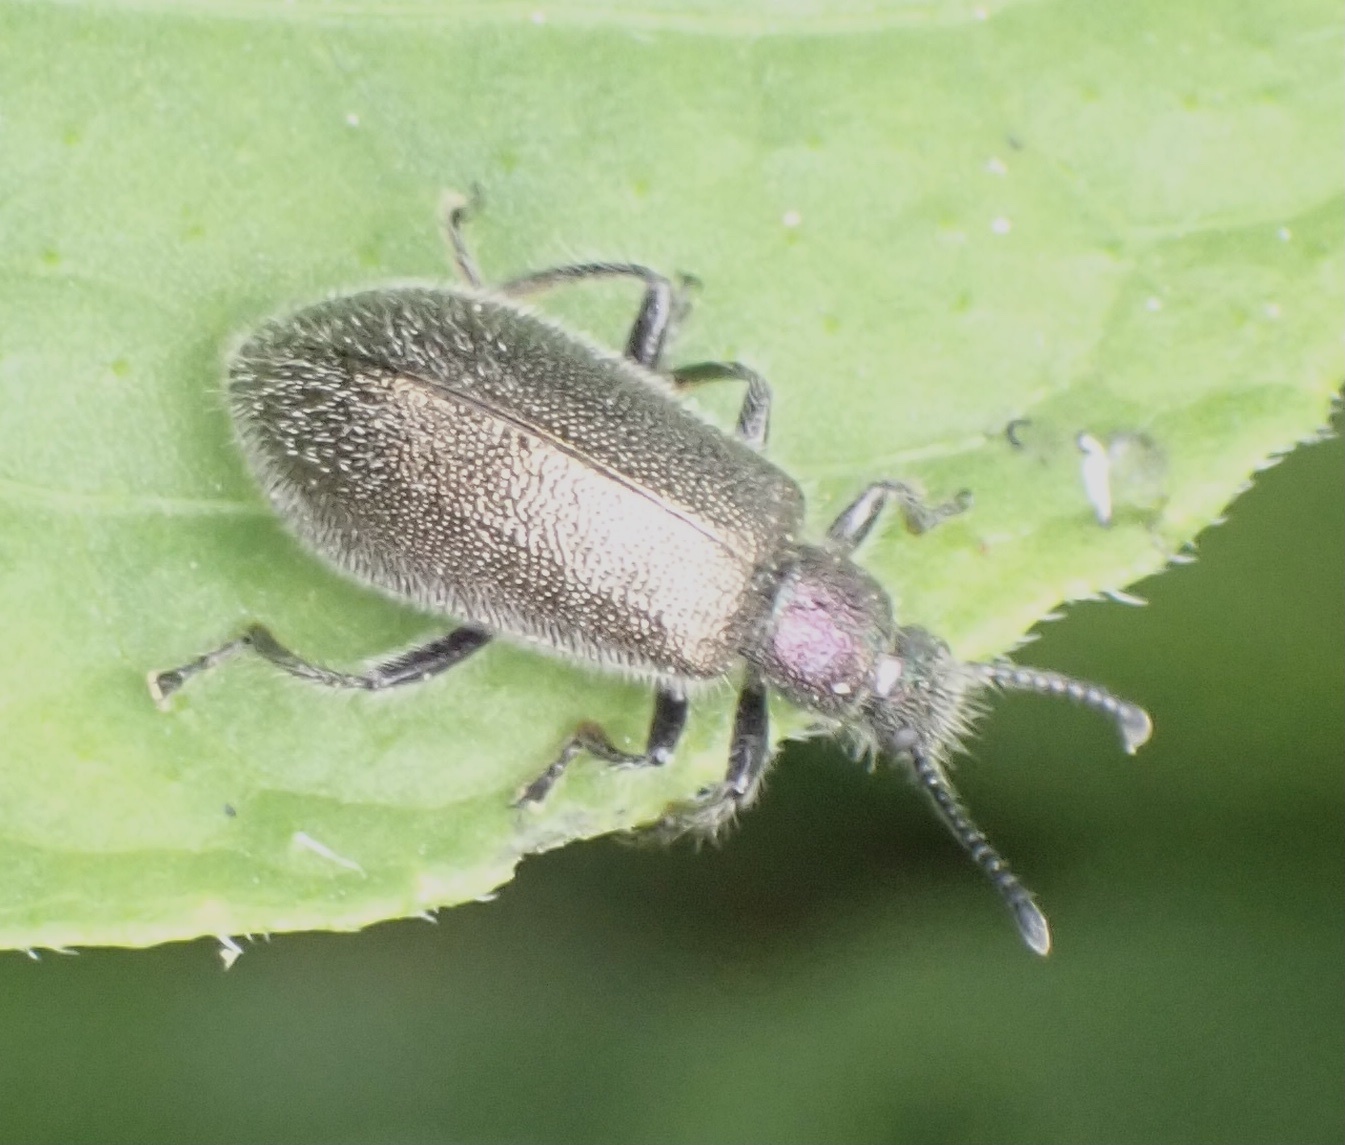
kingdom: Animalia
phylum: Arthropoda
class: Insecta
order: Coleoptera
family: Tenebrionidae
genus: Lagria
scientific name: Lagria villosa
